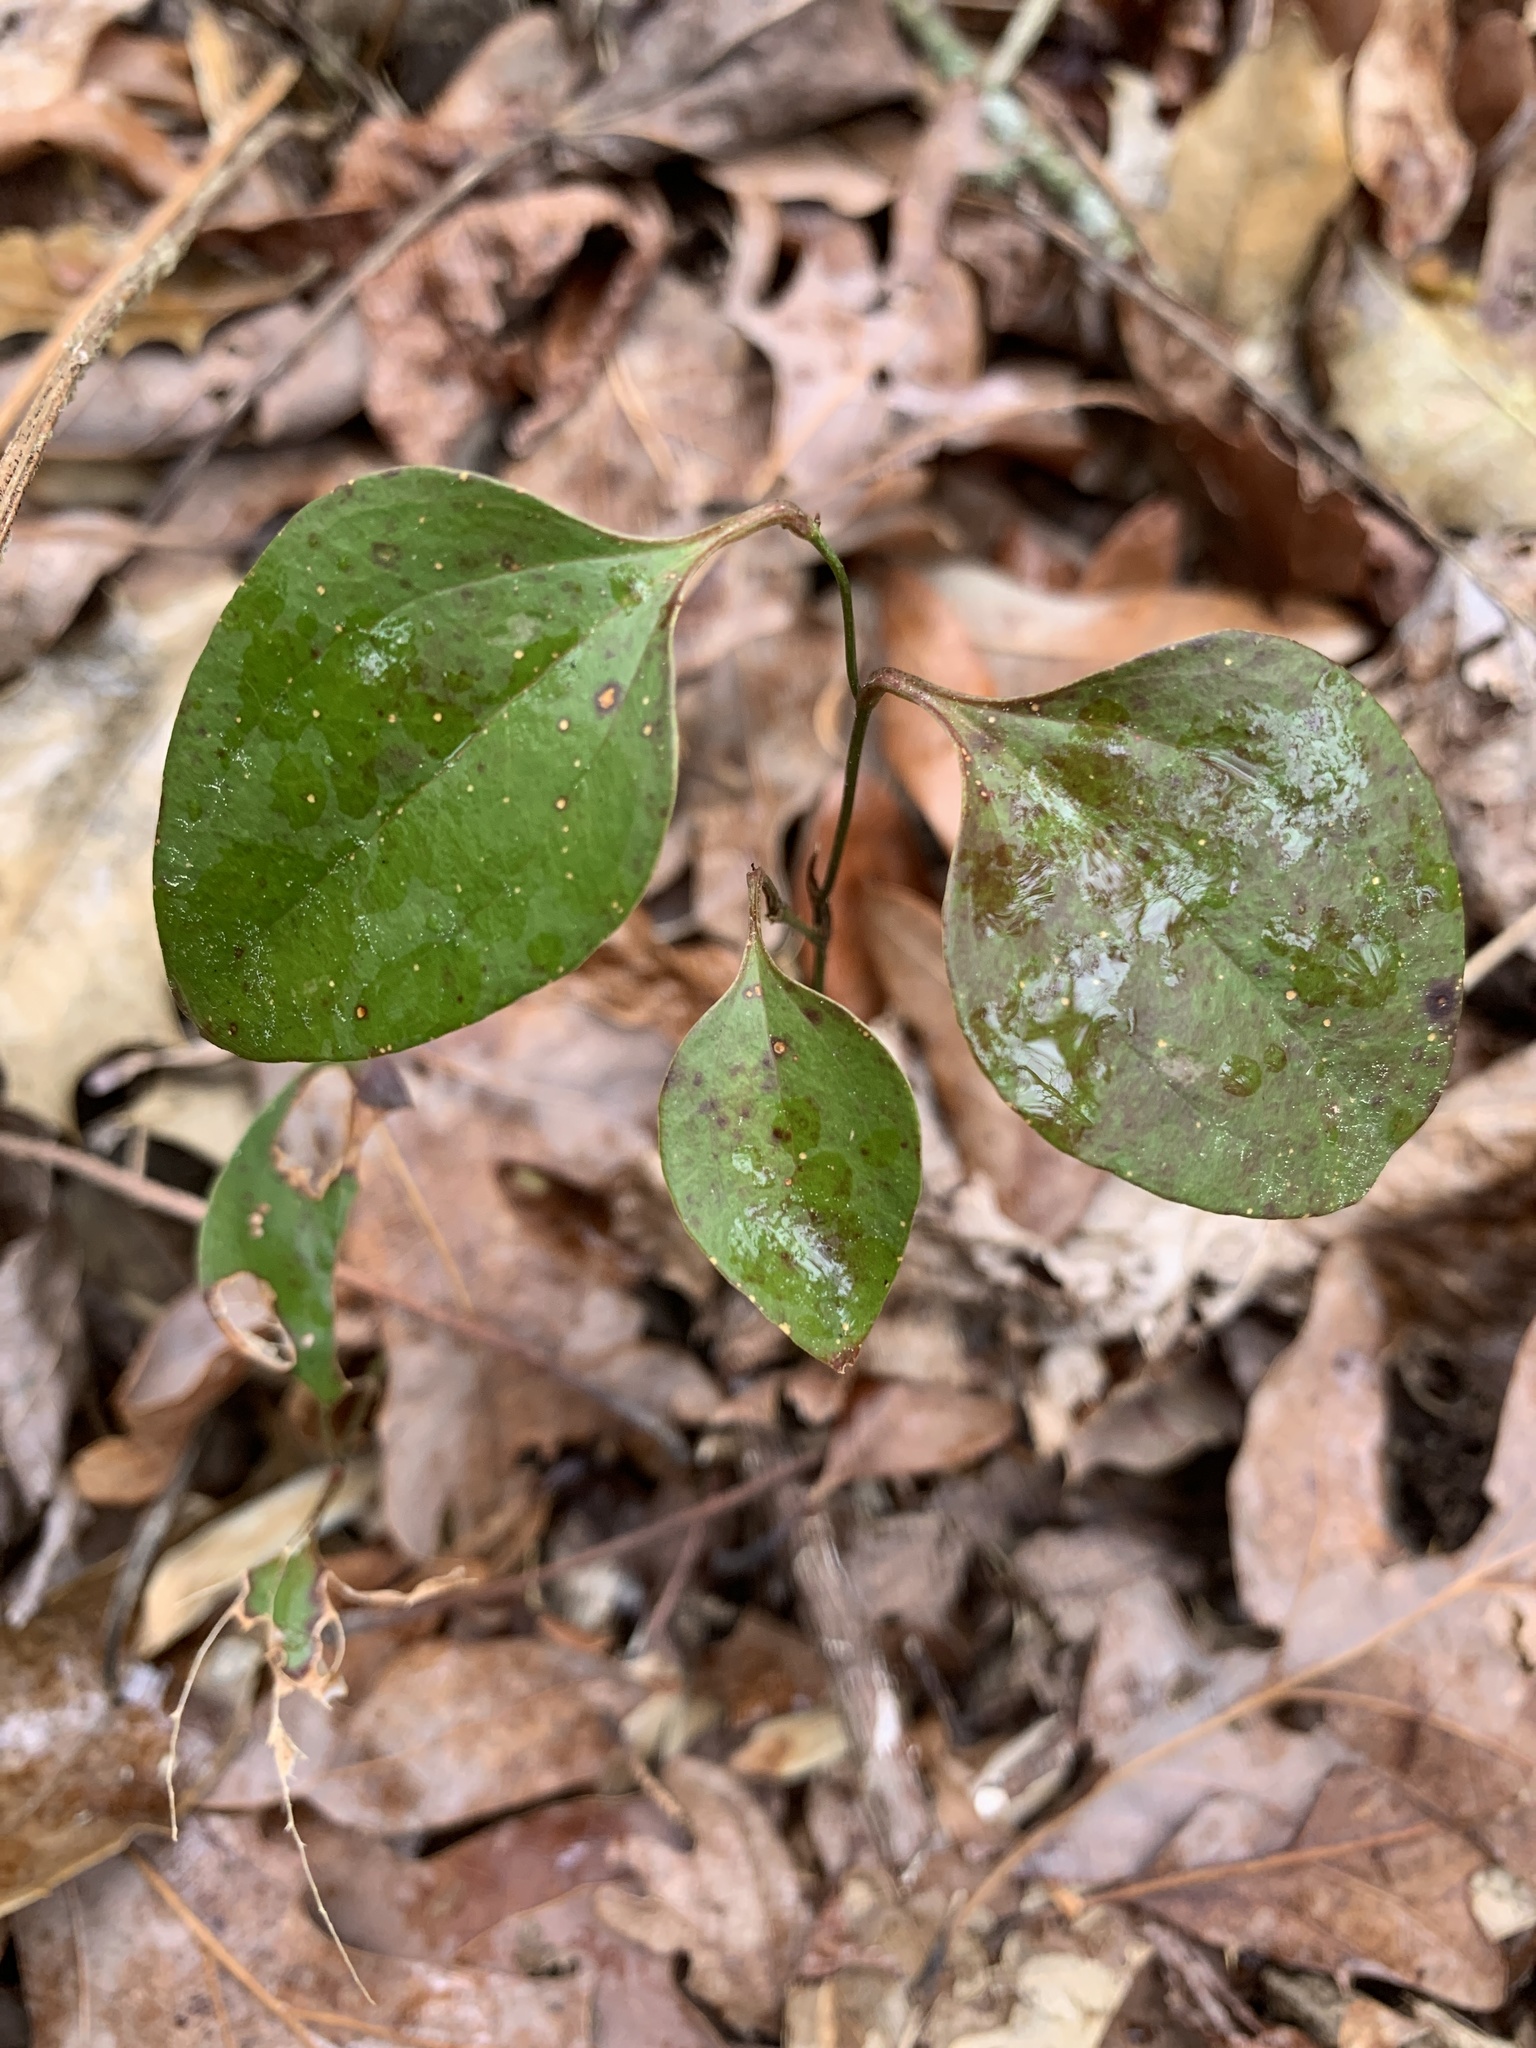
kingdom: Plantae
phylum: Tracheophyta
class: Liliopsida
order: Liliales
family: Smilacaceae
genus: Smilax
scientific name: Smilax glauca
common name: Cat greenbrier
